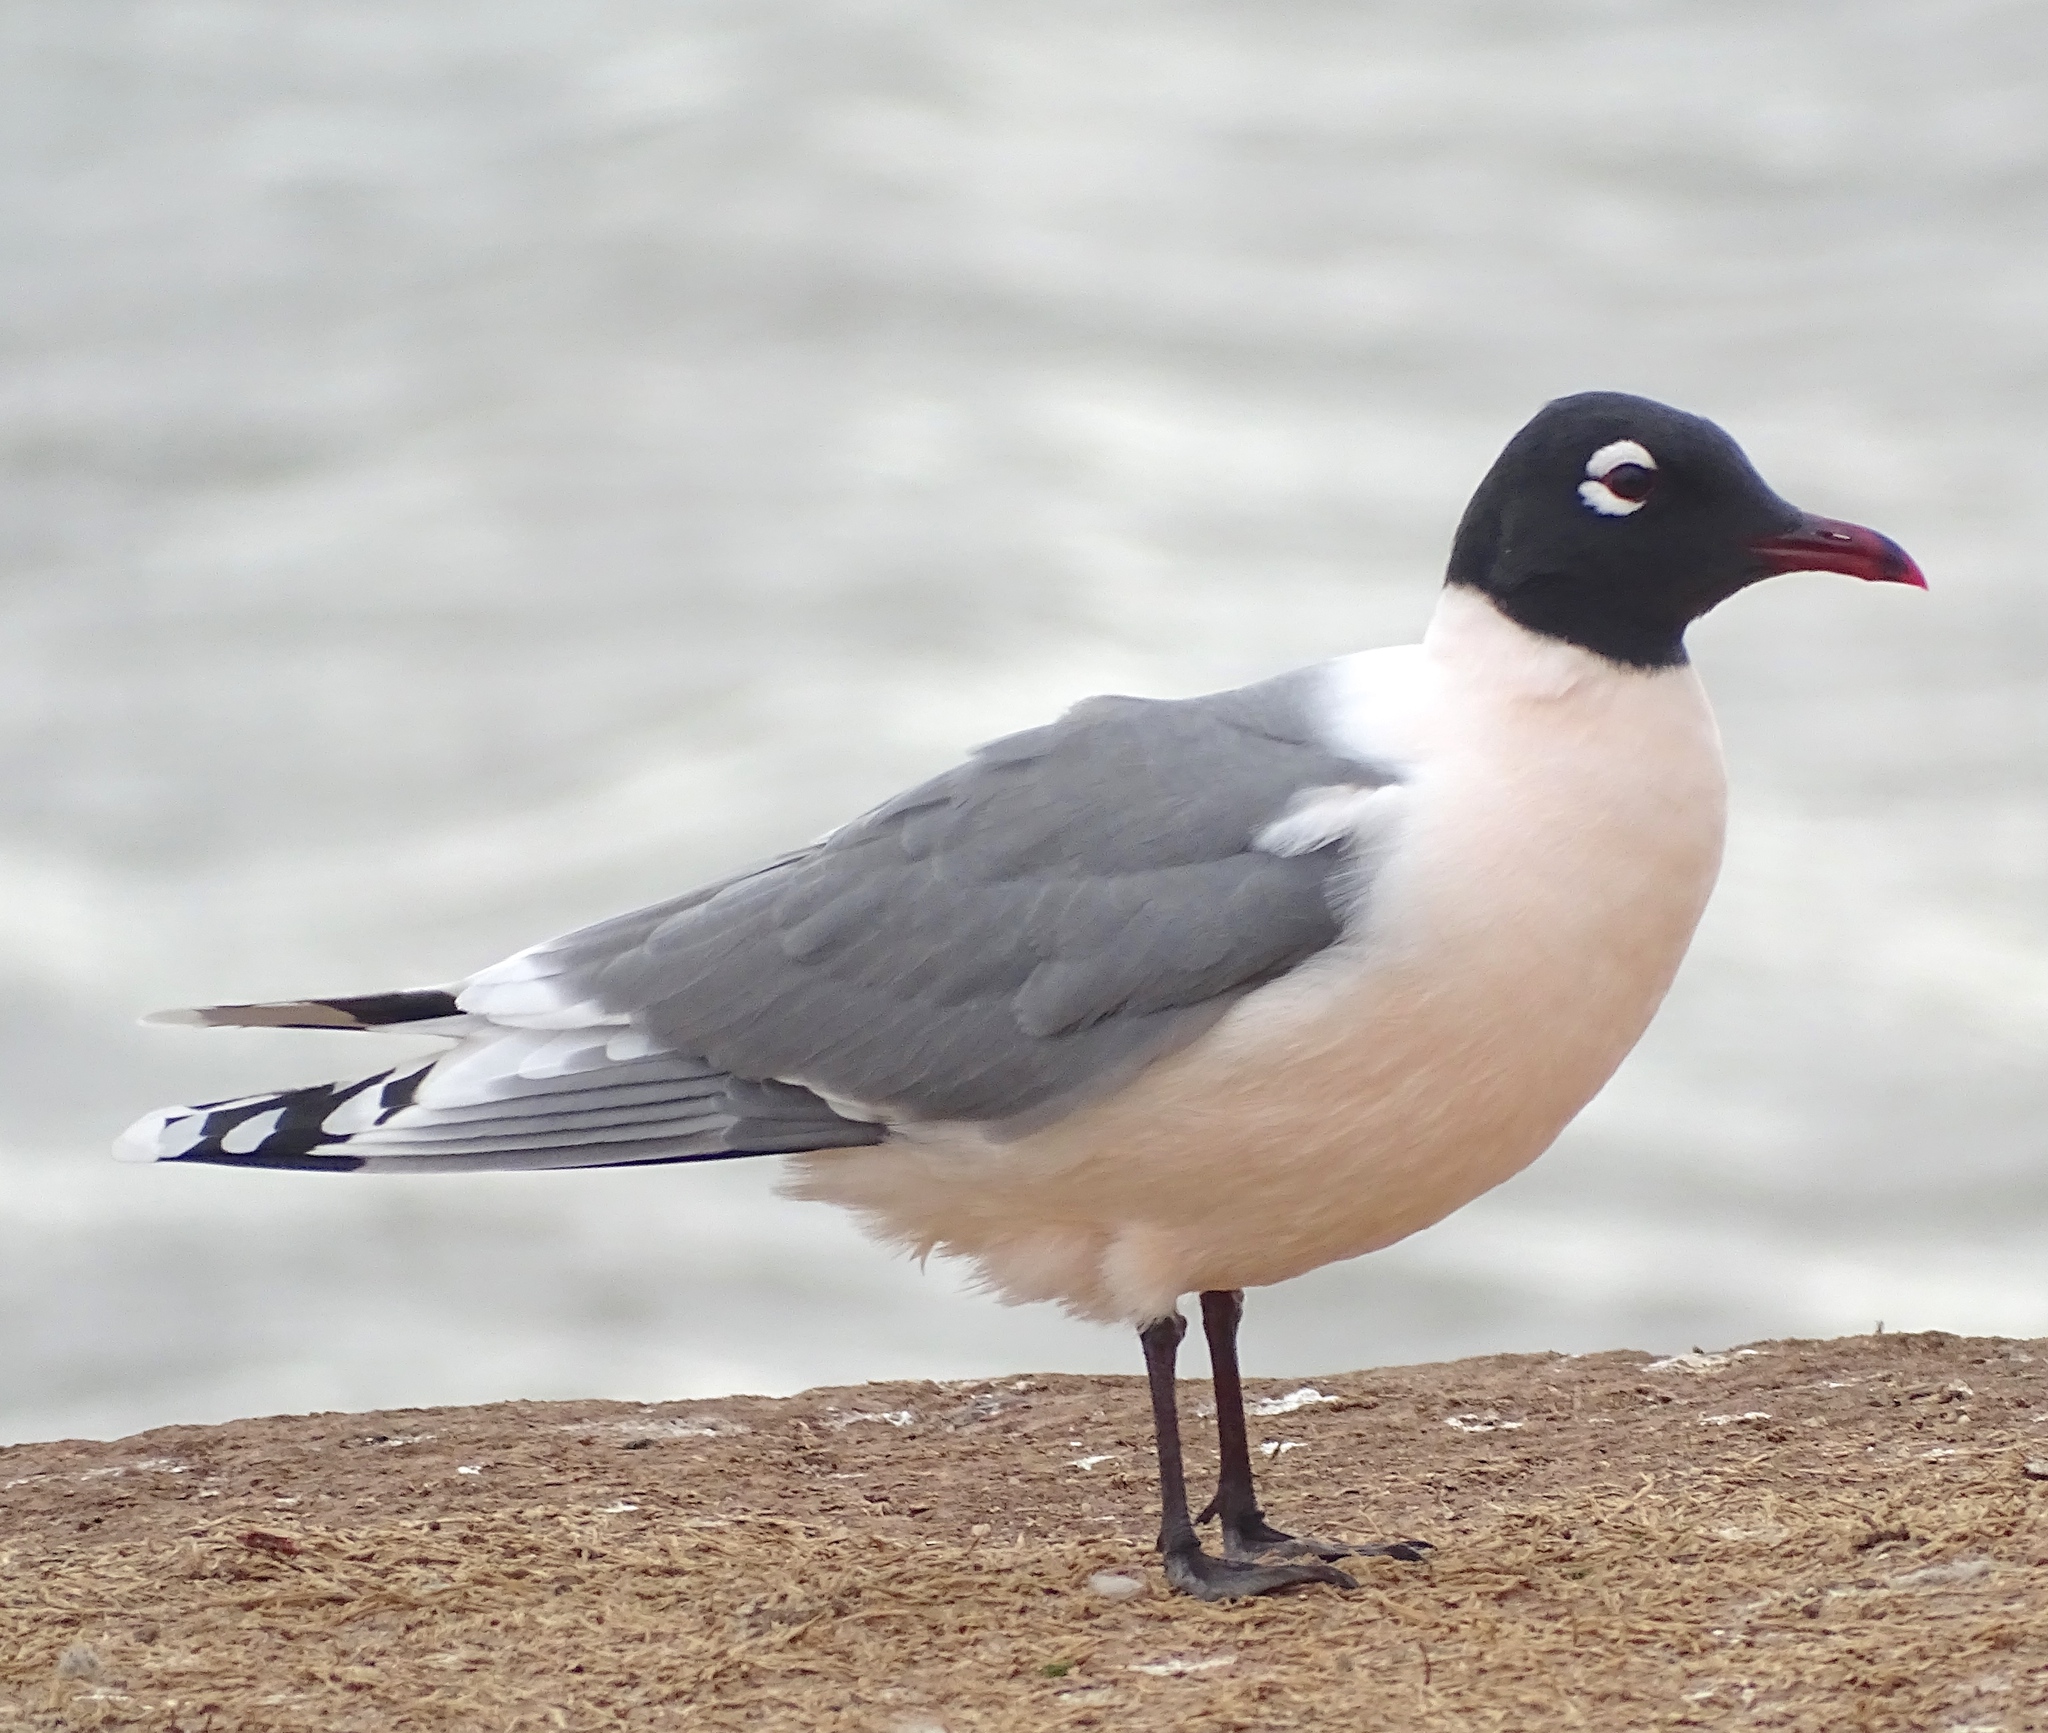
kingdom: Animalia
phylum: Chordata
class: Aves
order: Charadriiformes
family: Laridae
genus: Leucophaeus
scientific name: Leucophaeus pipixcan
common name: Franklin's gull
